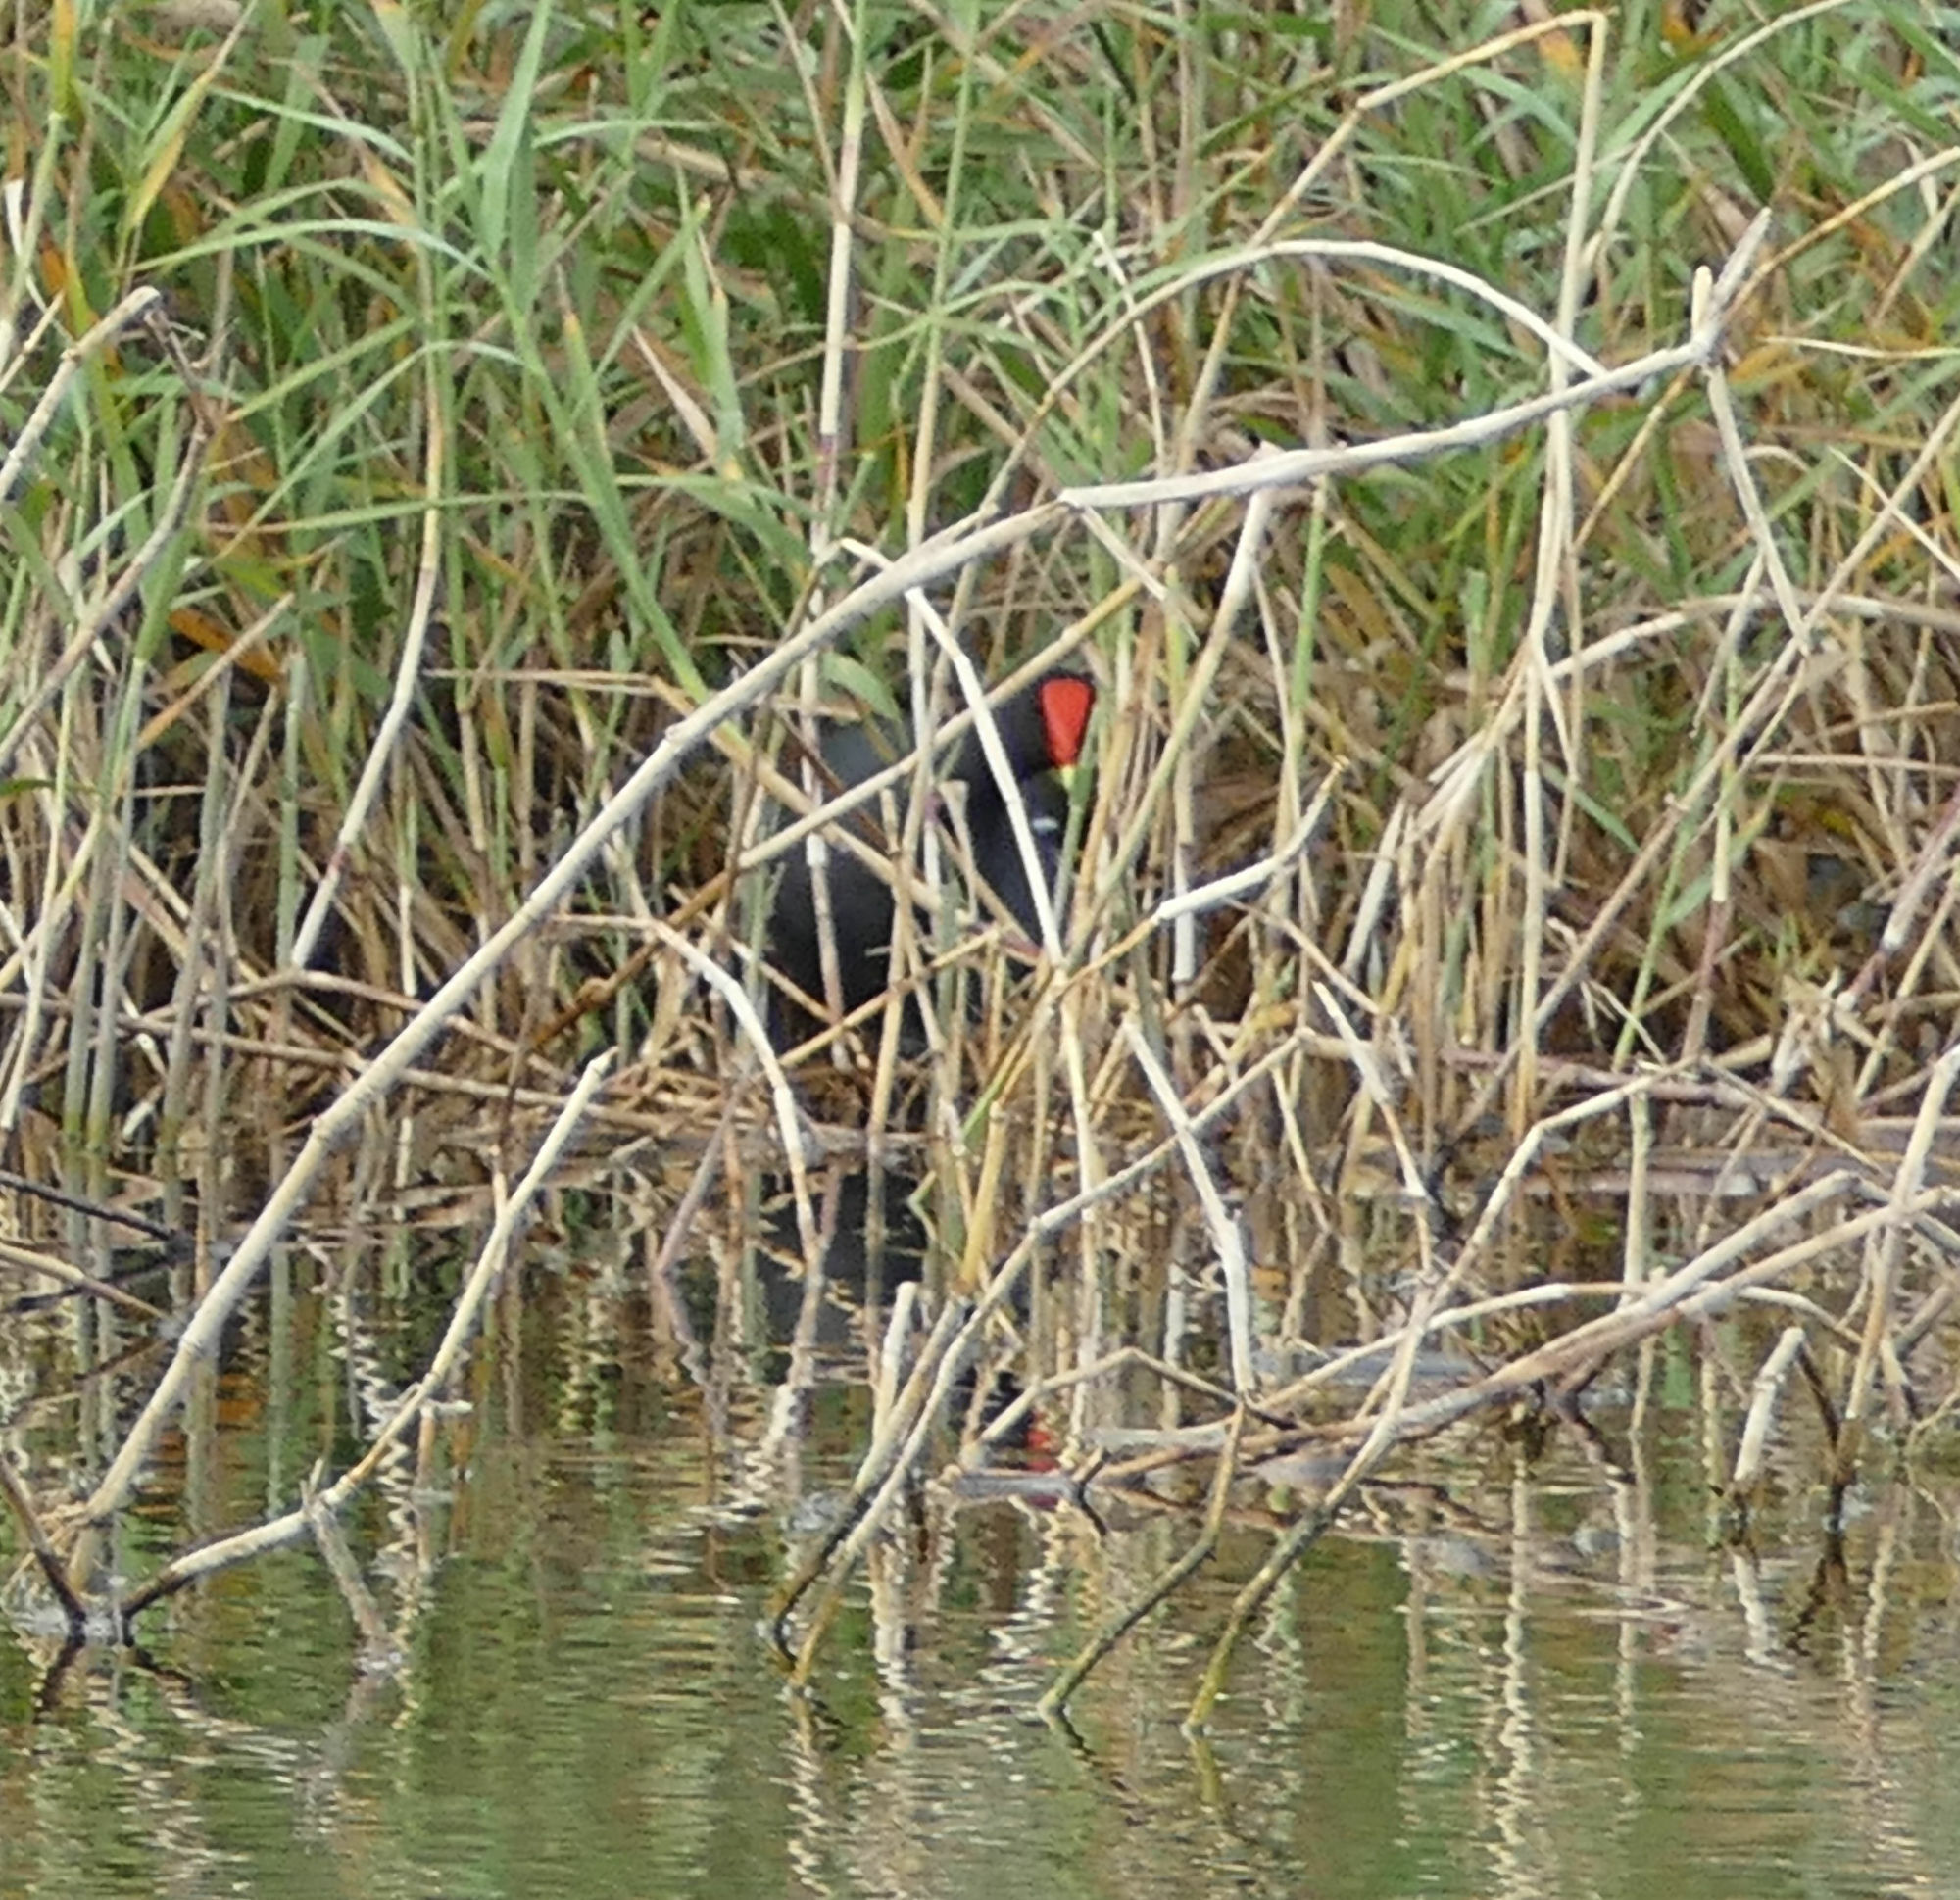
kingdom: Animalia
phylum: Chordata
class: Aves
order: Gruiformes
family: Rallidae
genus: Gallinula
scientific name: Gallinula chloropus
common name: Common moorhen
